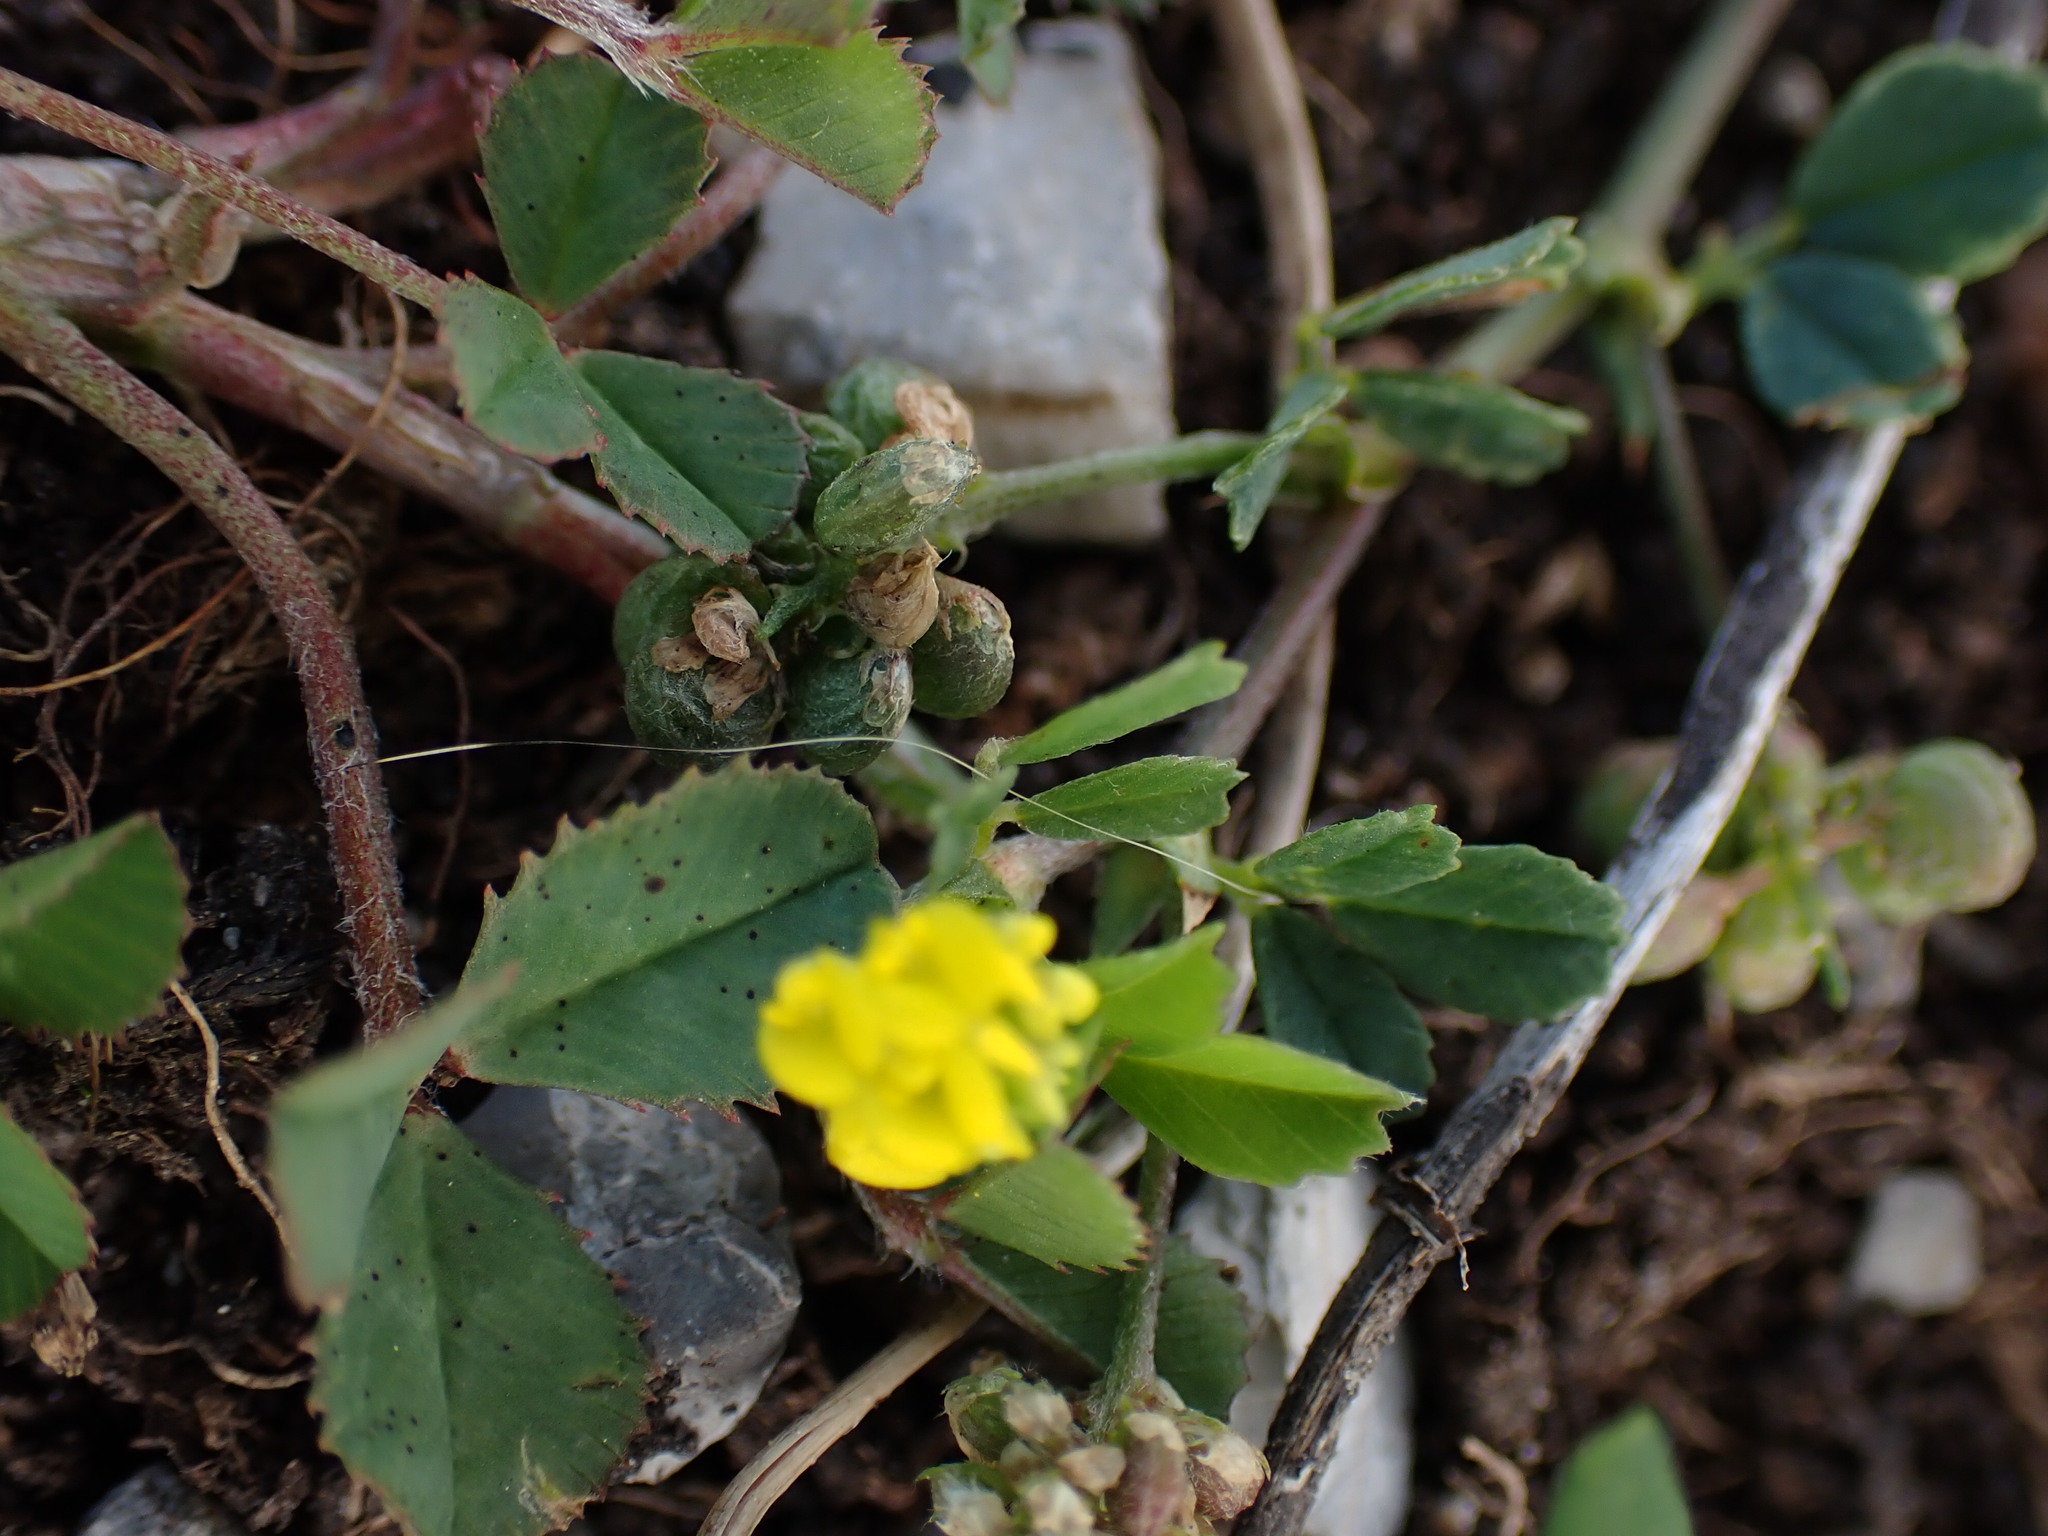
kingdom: Plantae
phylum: Tracheophyta
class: Magnoliopsida
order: Fabales
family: Fabaceae
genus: Medicago
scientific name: Medicago lupulina
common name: Black medick
